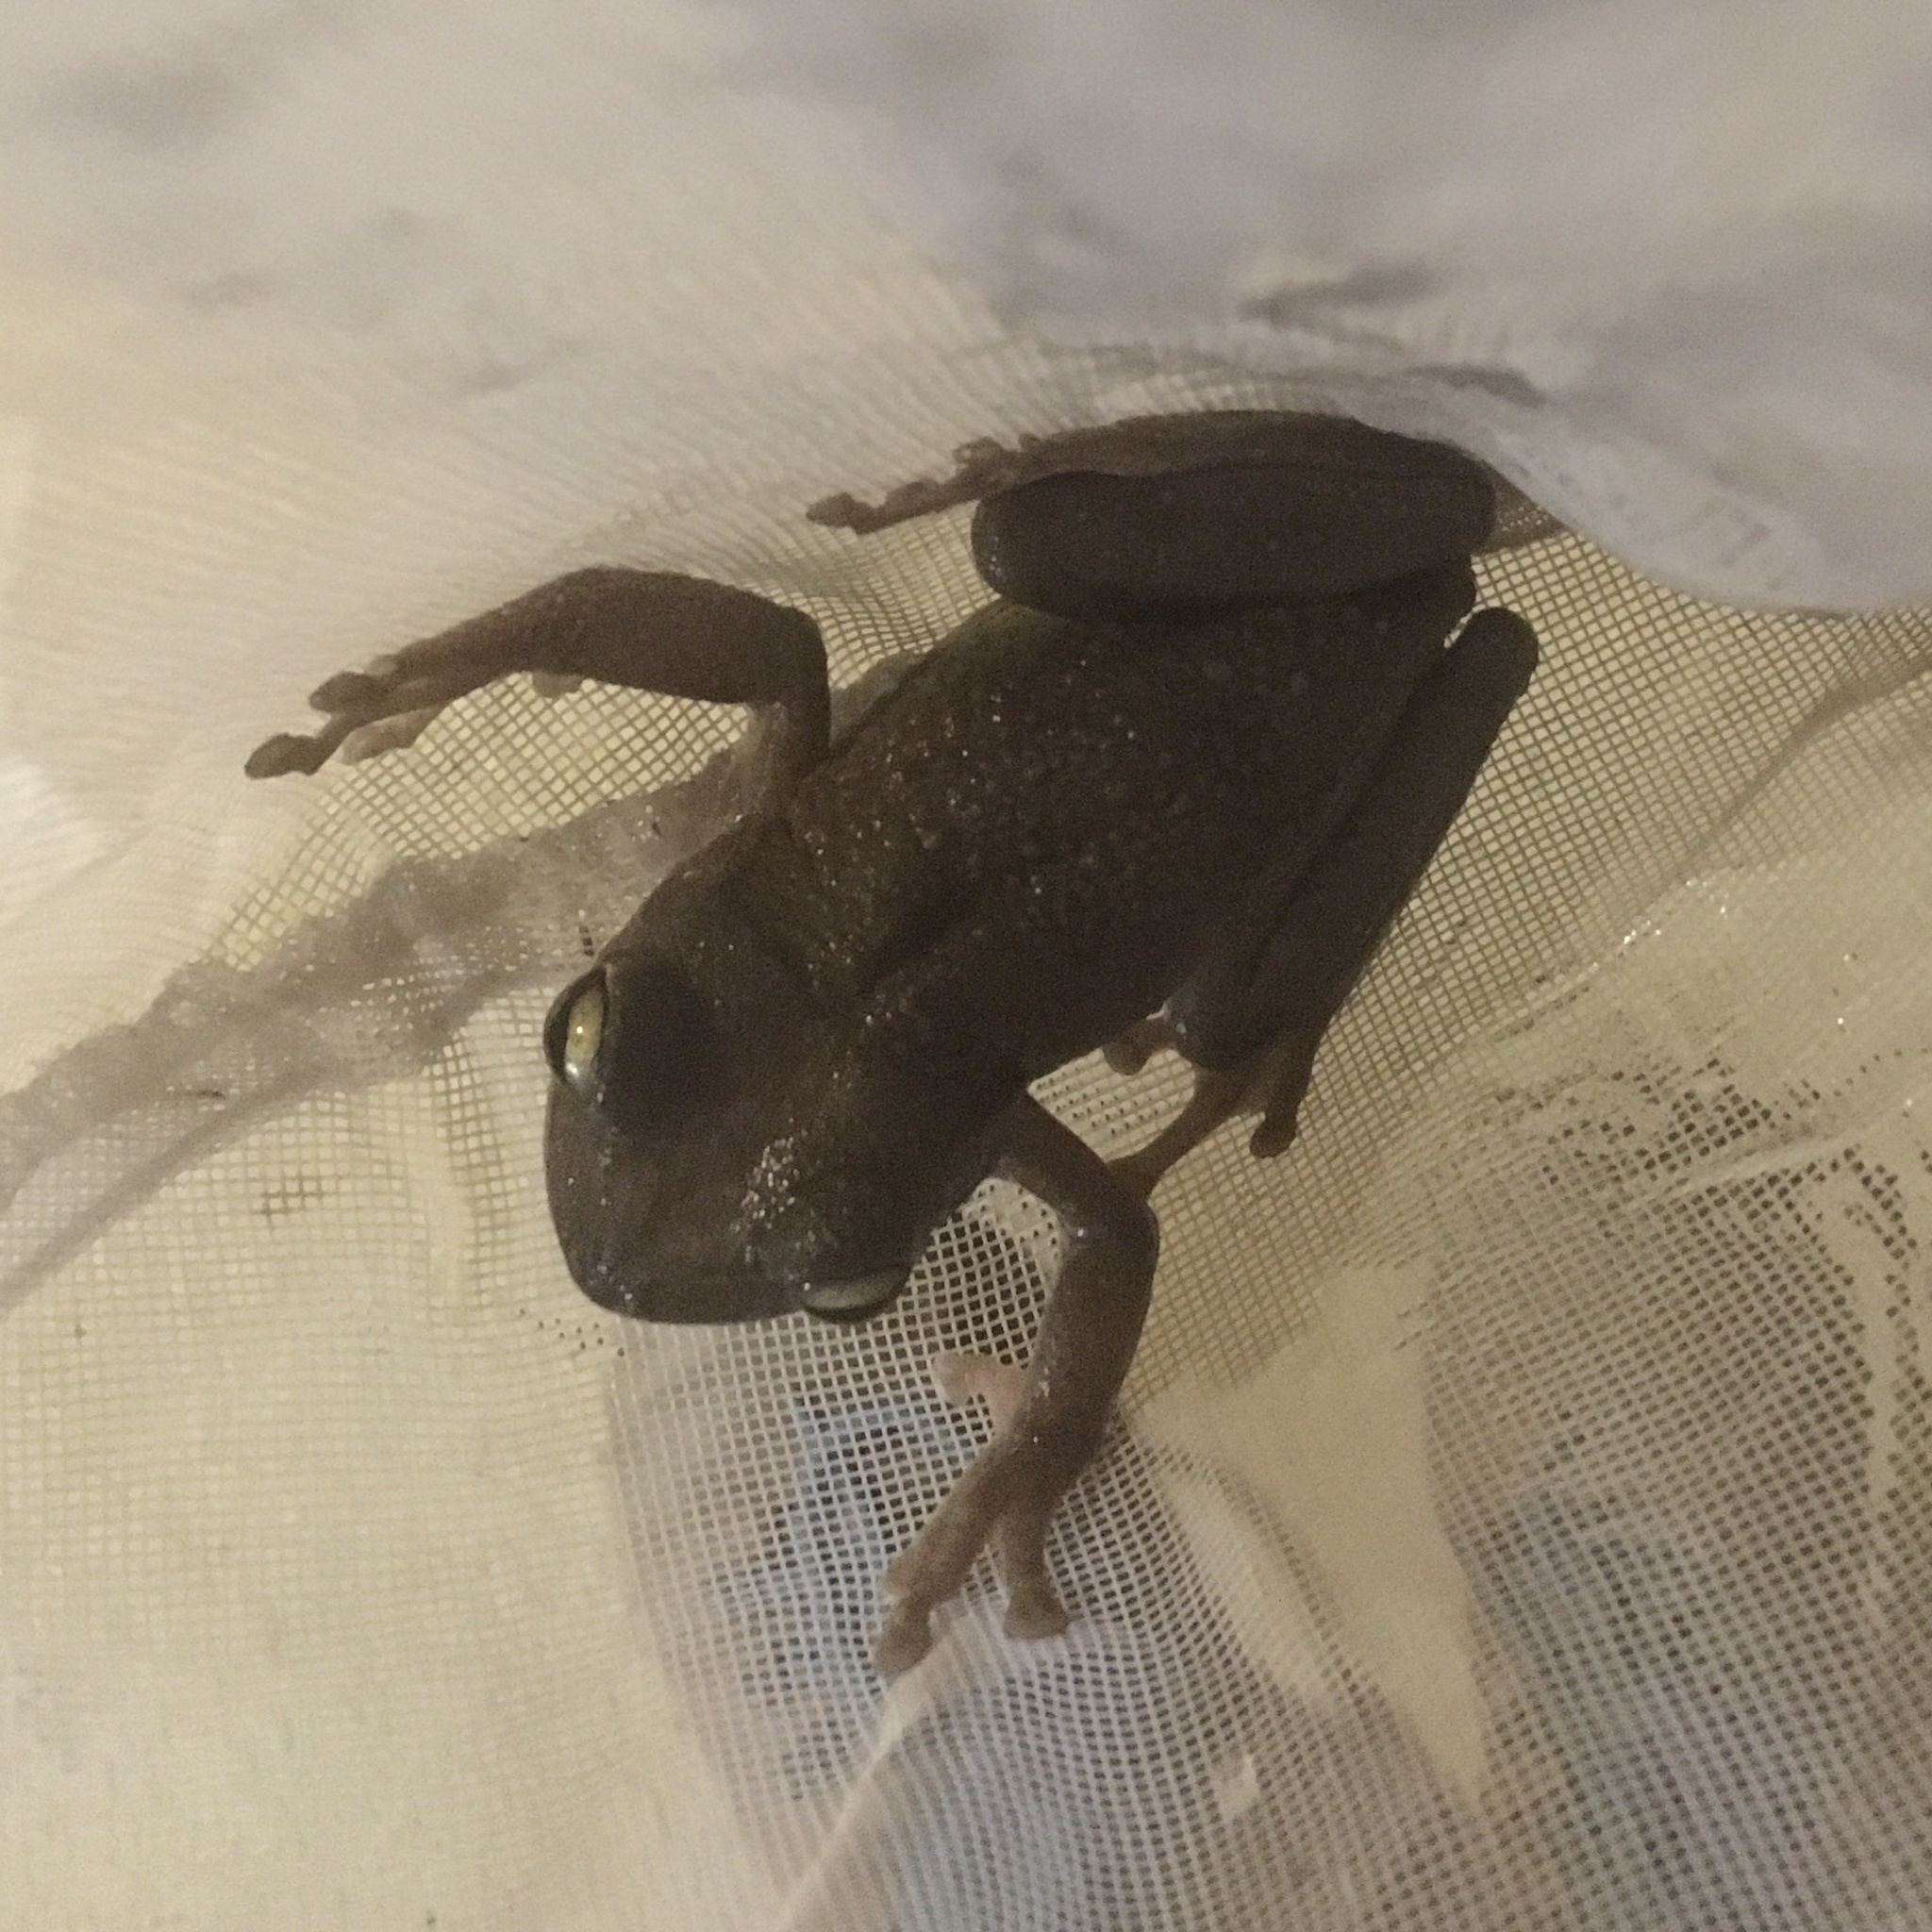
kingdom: Animalia
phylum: Chordata
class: Amphibia
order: Anura
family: Hylidae
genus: Osteopilus
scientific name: Osteopilus septentrionalis
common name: Cuban treefrog
